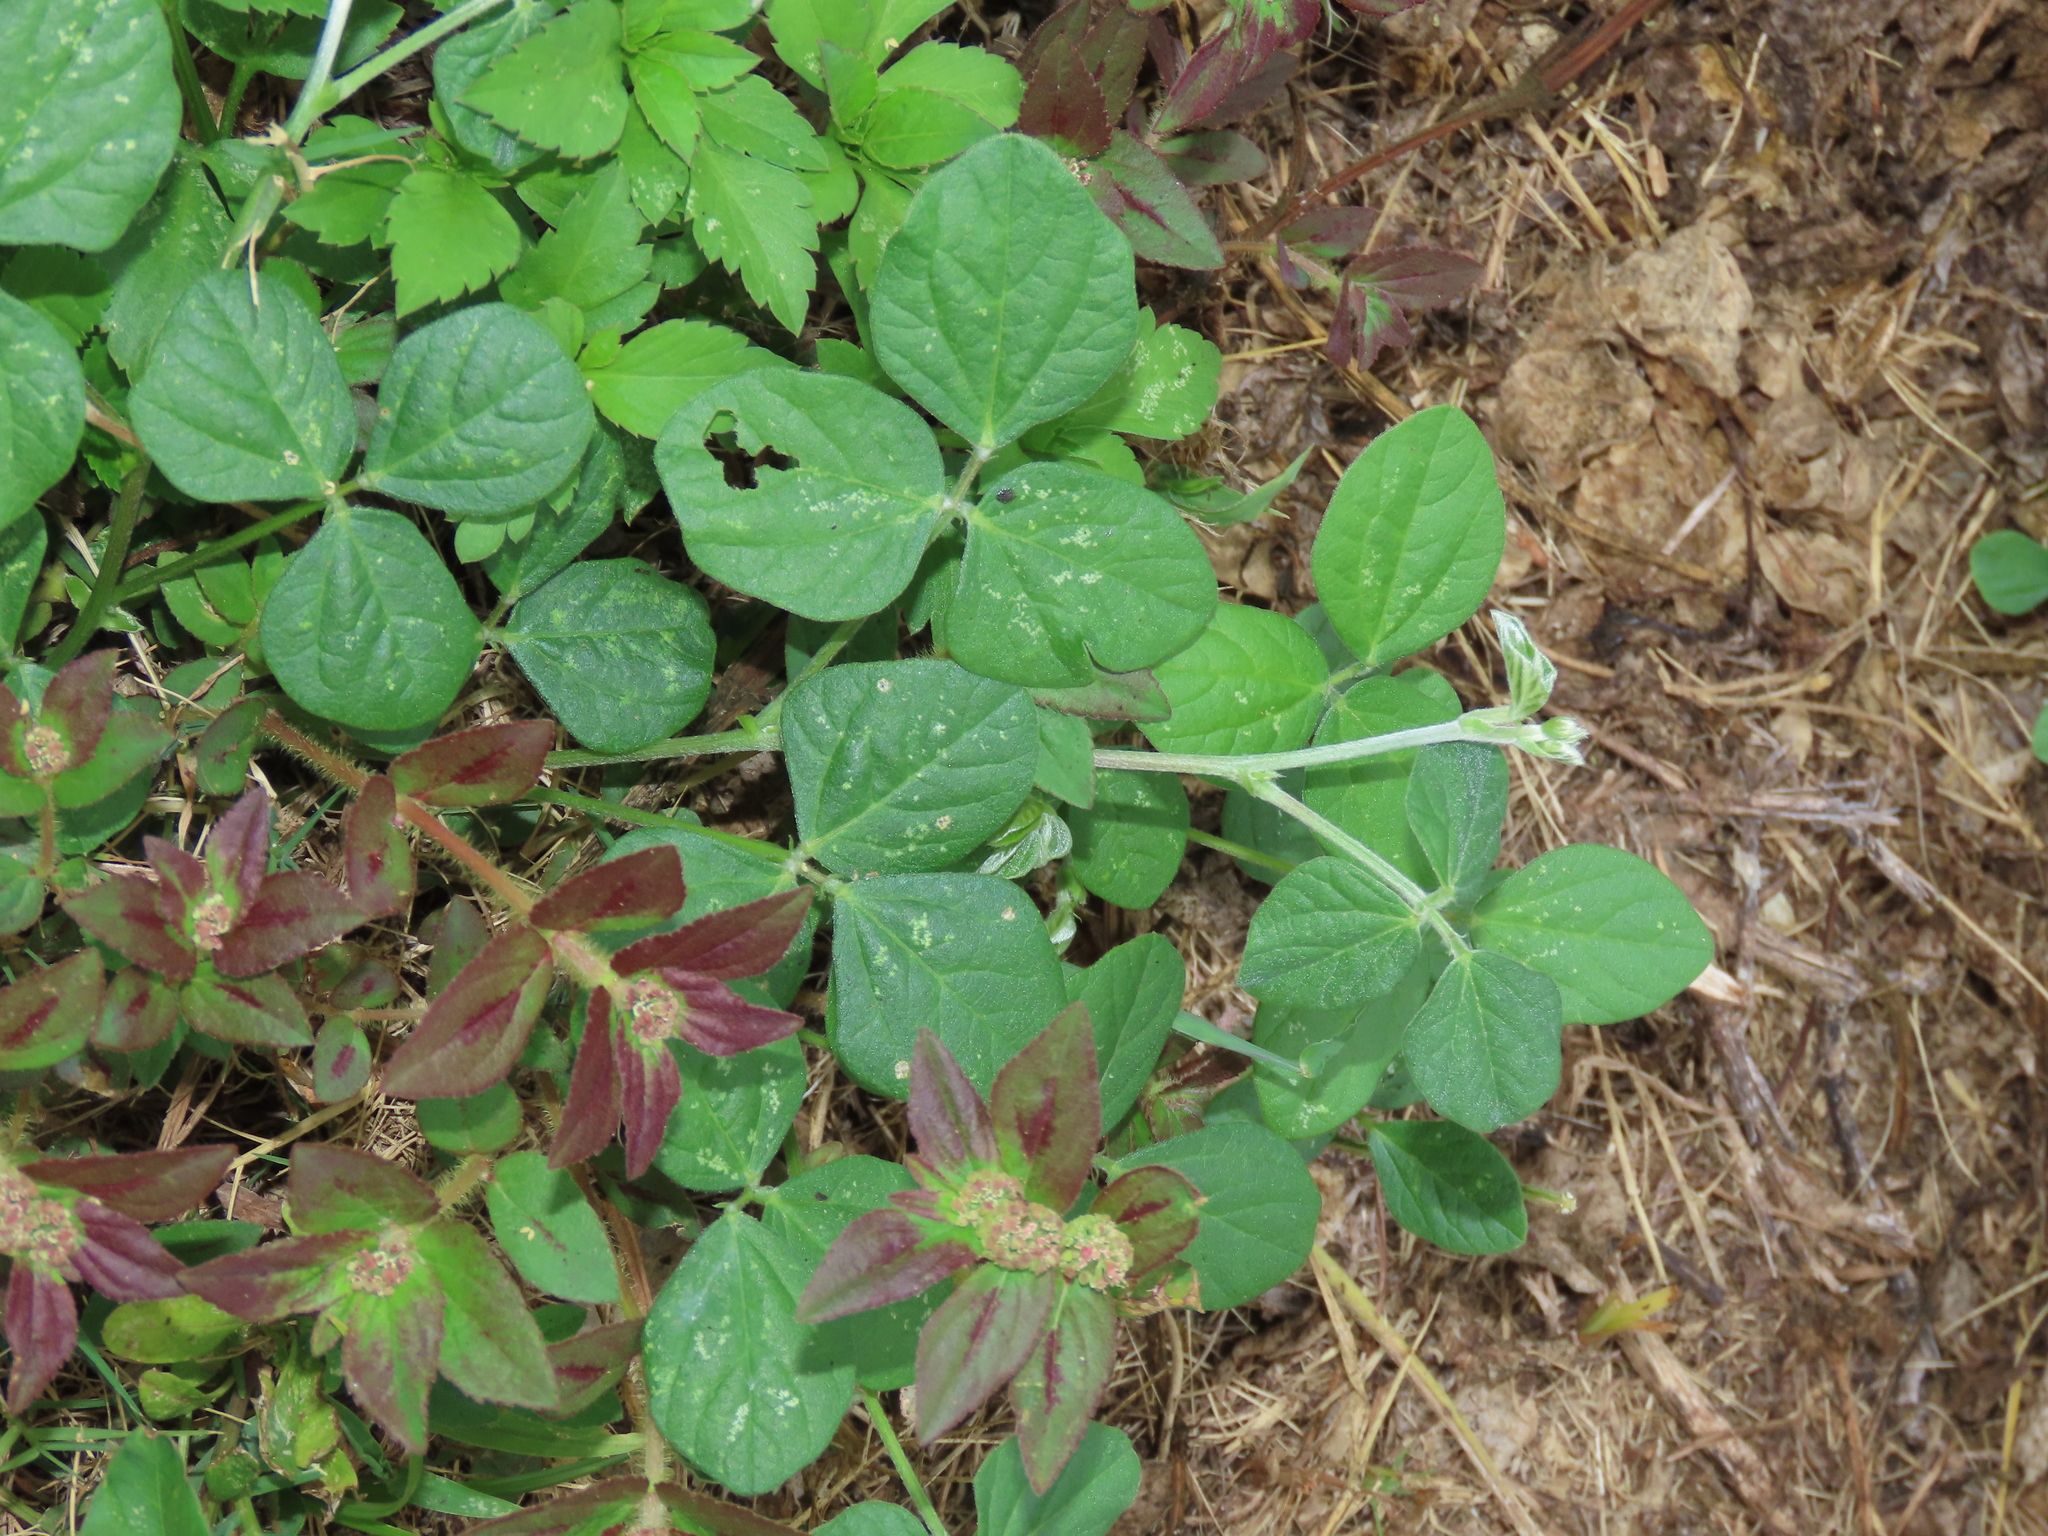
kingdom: Plantae
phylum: Tracheophyta
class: Magnoliopsida
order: Fabales
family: Fabaceae
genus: Macroptilium
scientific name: Macroptilium atropurpureum
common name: Purple bushbean
